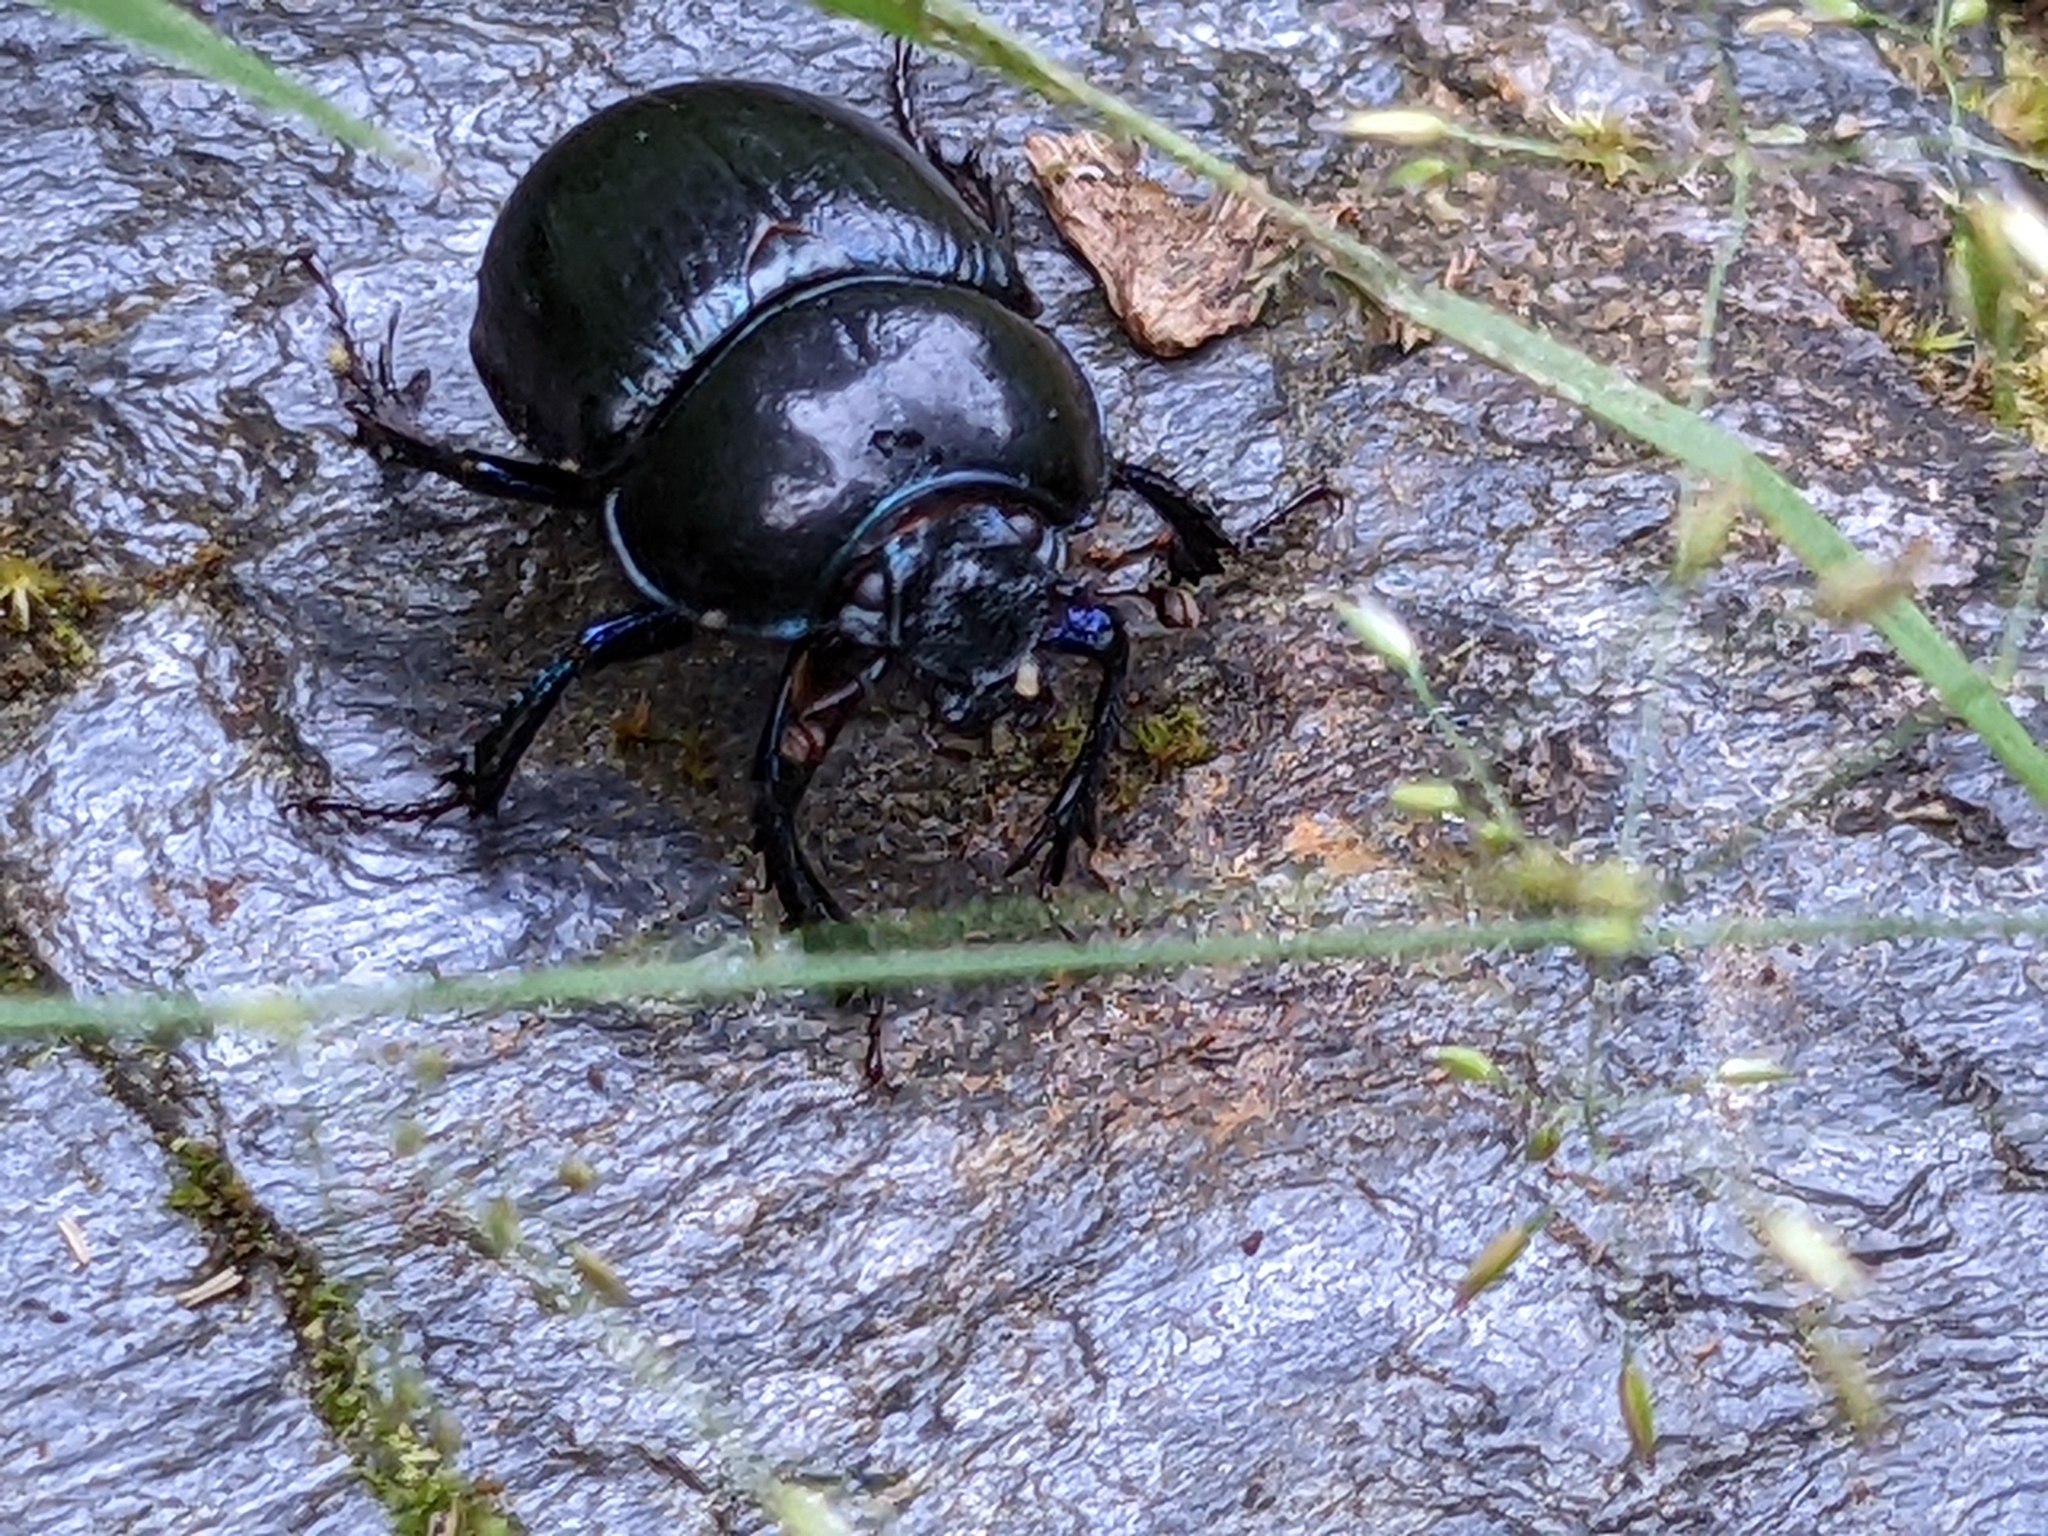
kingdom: Animalia
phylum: Arthropoda
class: Insecta
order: Coleoptera
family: Geotrupidae
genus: Anoplotrupes
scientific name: Anoplotrupes stercorosus
